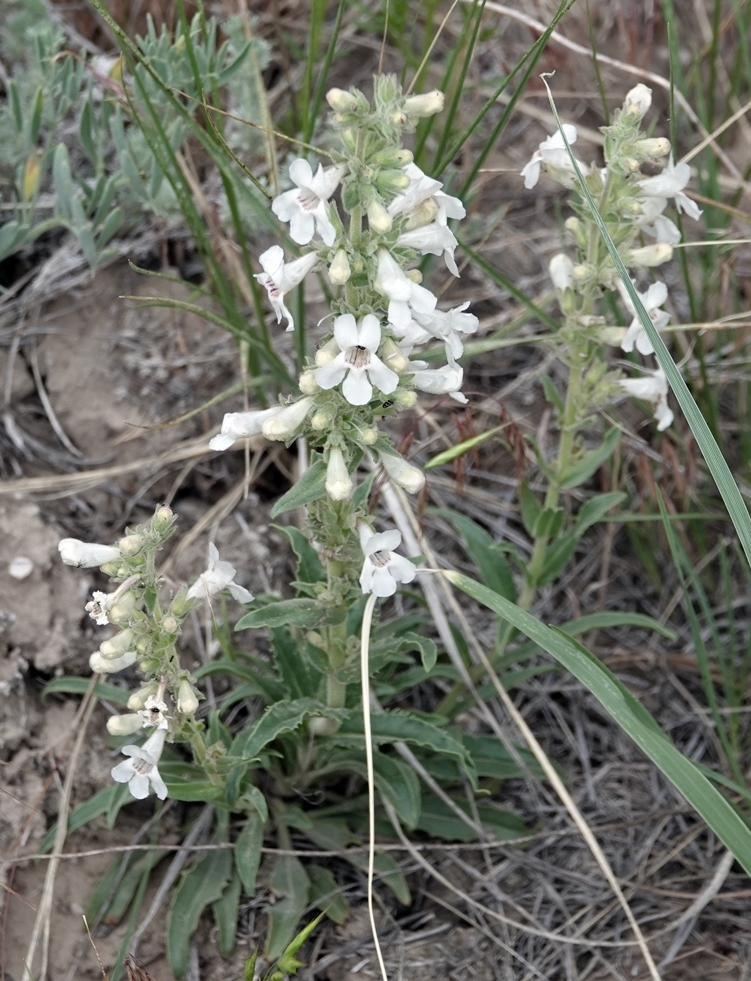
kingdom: Plantae
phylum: Tracheophyta
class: Magnoliopsida
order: Lamiales
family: Plantaginaceae
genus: Penstemon
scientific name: Penstemon albidus
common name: White beardtongue
